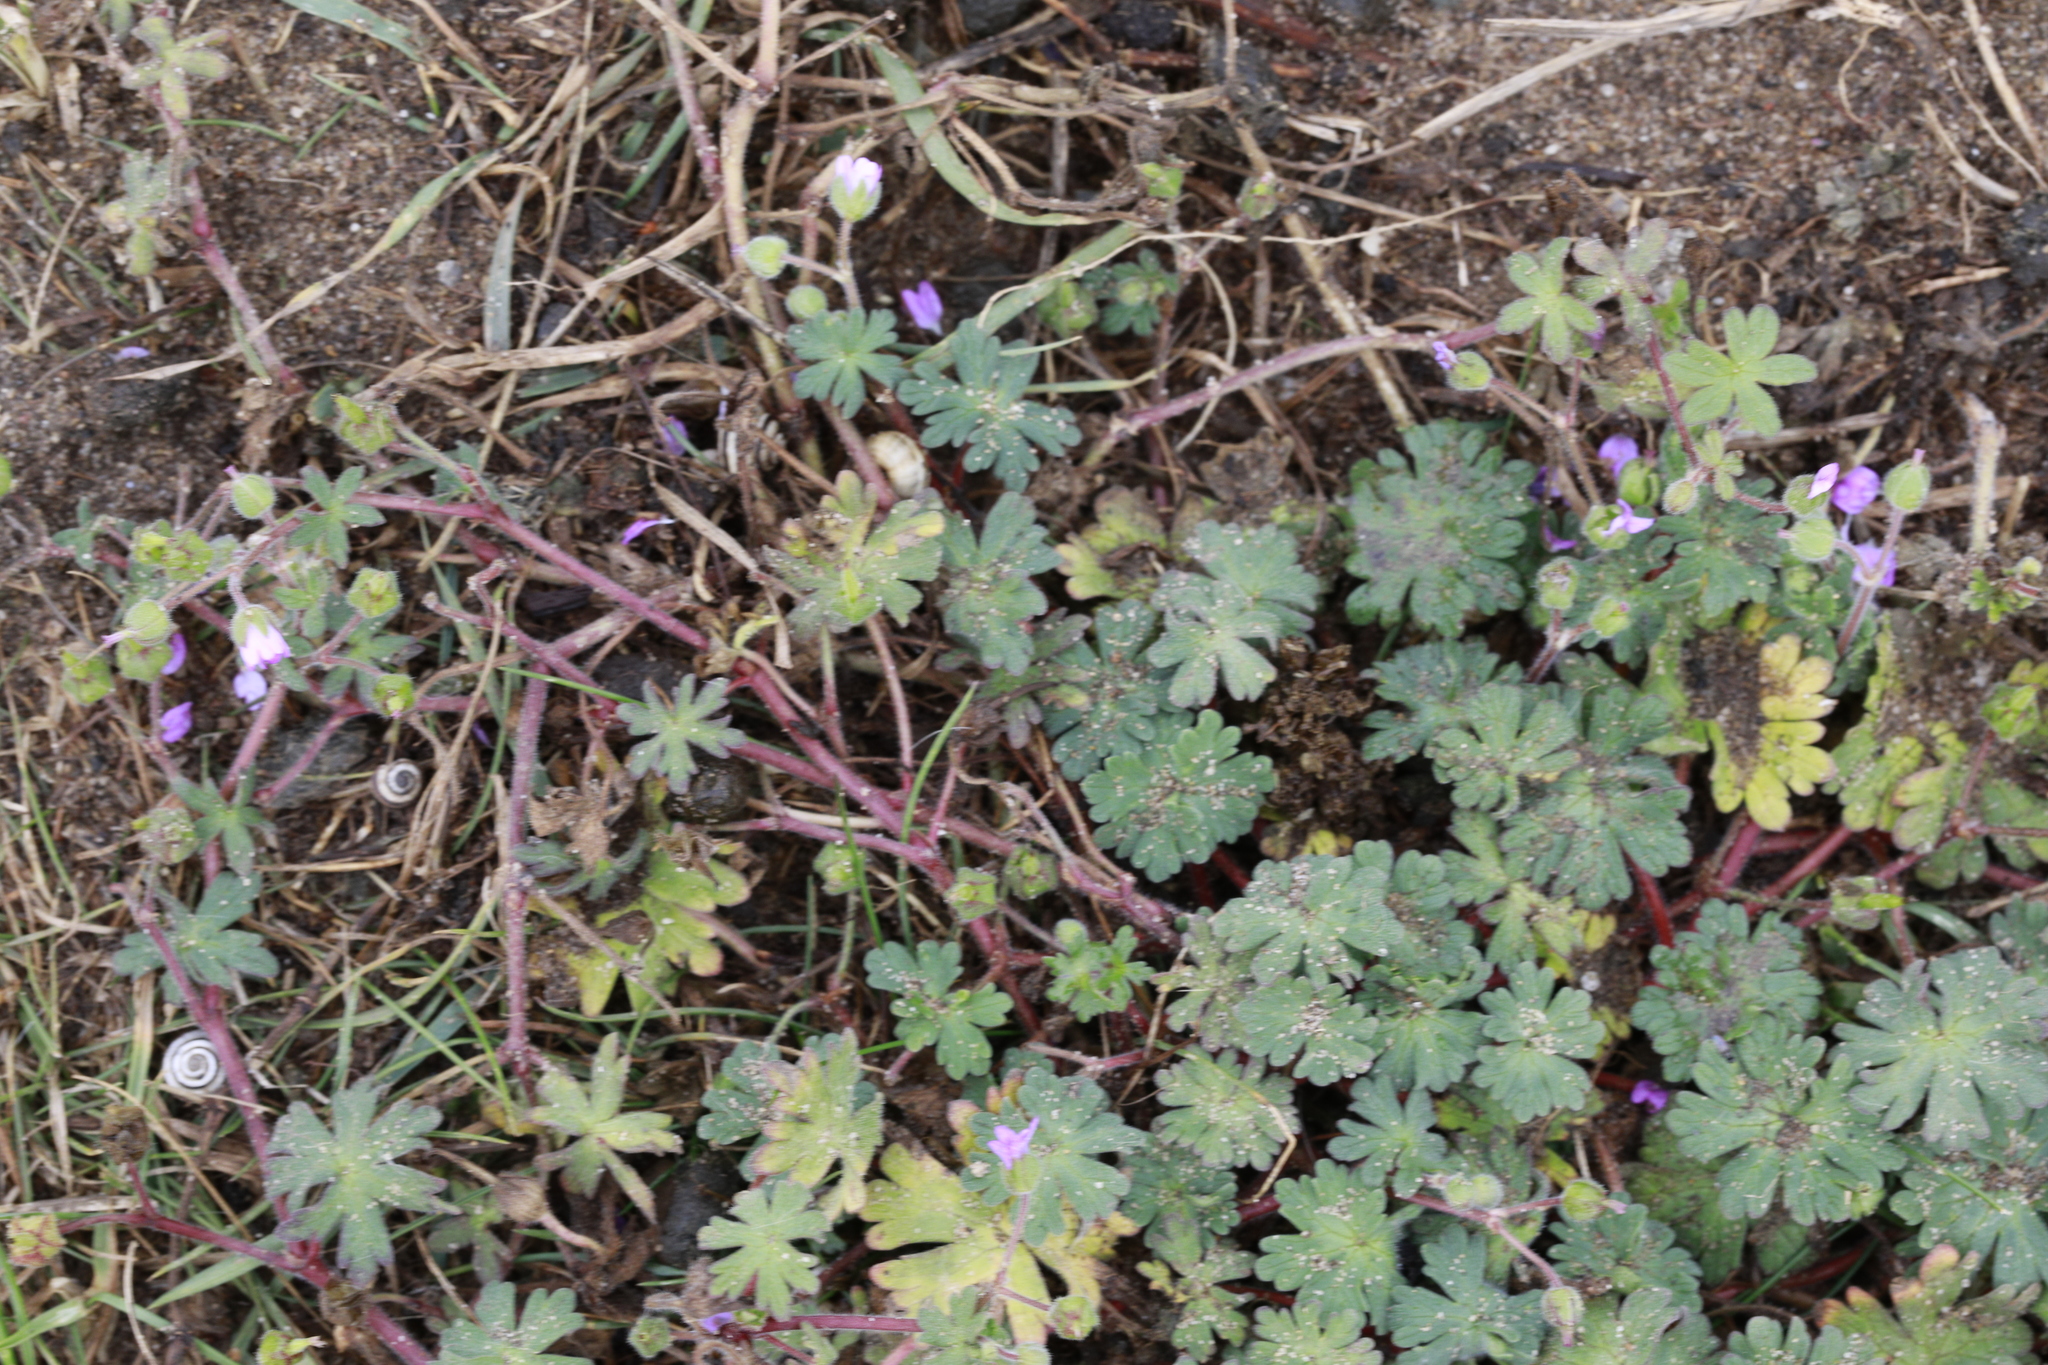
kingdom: Plantae
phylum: Tracheophyta
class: Magnoliopsida
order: Geraniales
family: Geraniaceae
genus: Geranium
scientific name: Geranium molle
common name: Dove's-foot crane's-bill
